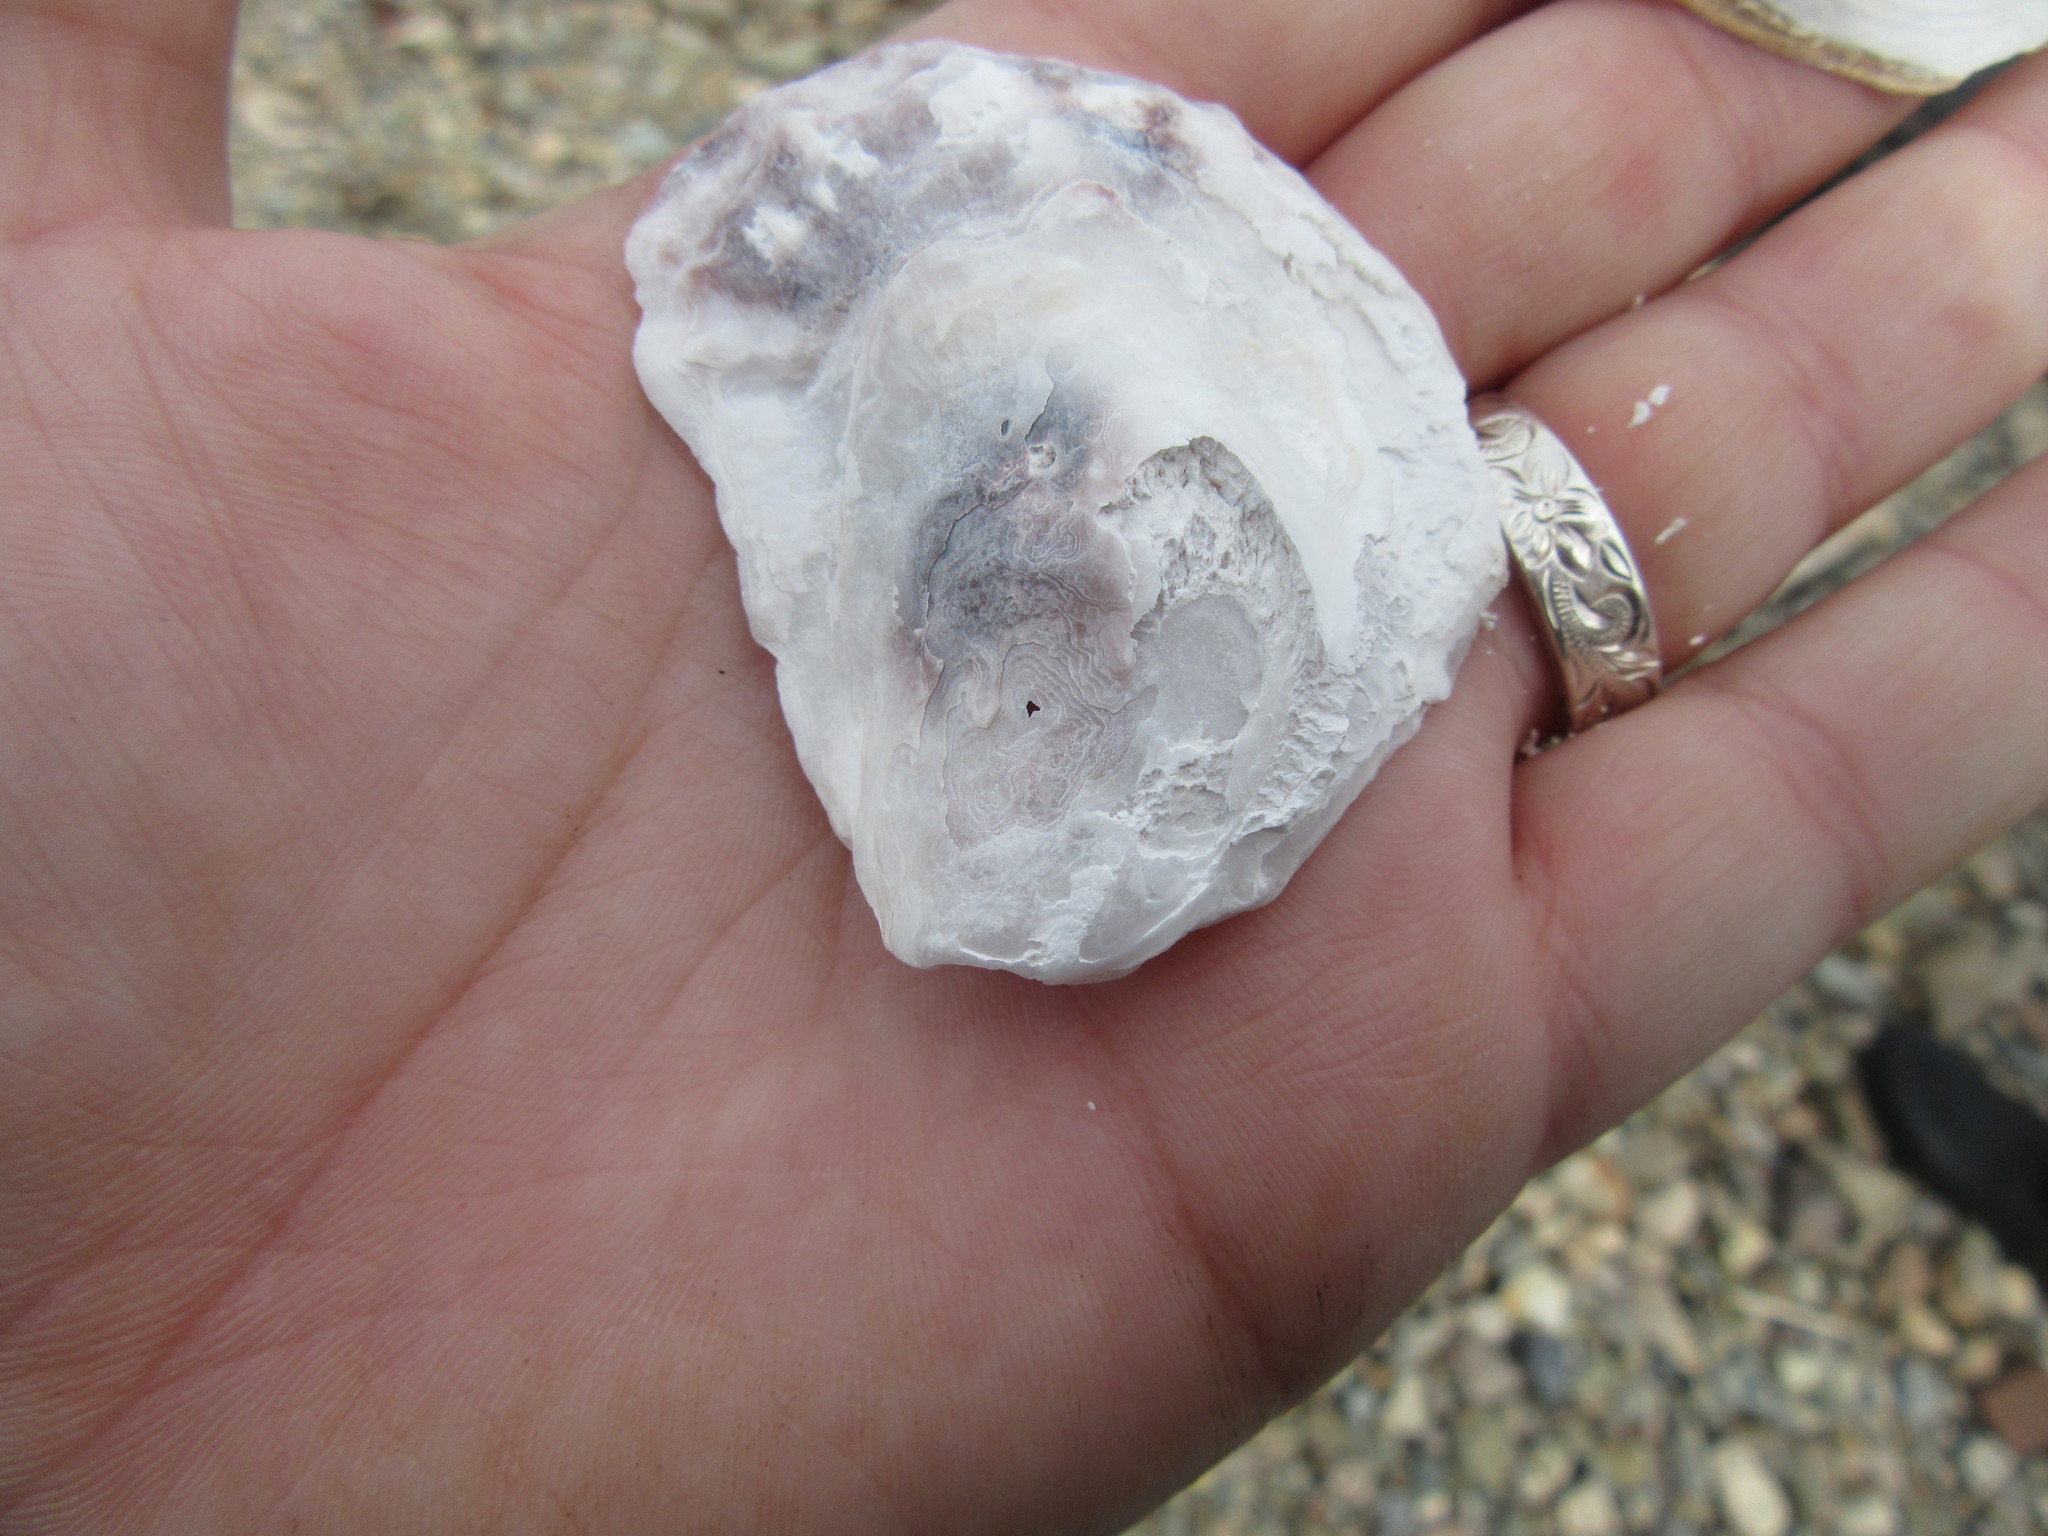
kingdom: Animalia
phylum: Mollusca
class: Bivalvia
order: Ostreida
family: Ostreidae
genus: Crassostrea
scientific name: Crassostrea virginica
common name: American oyster
